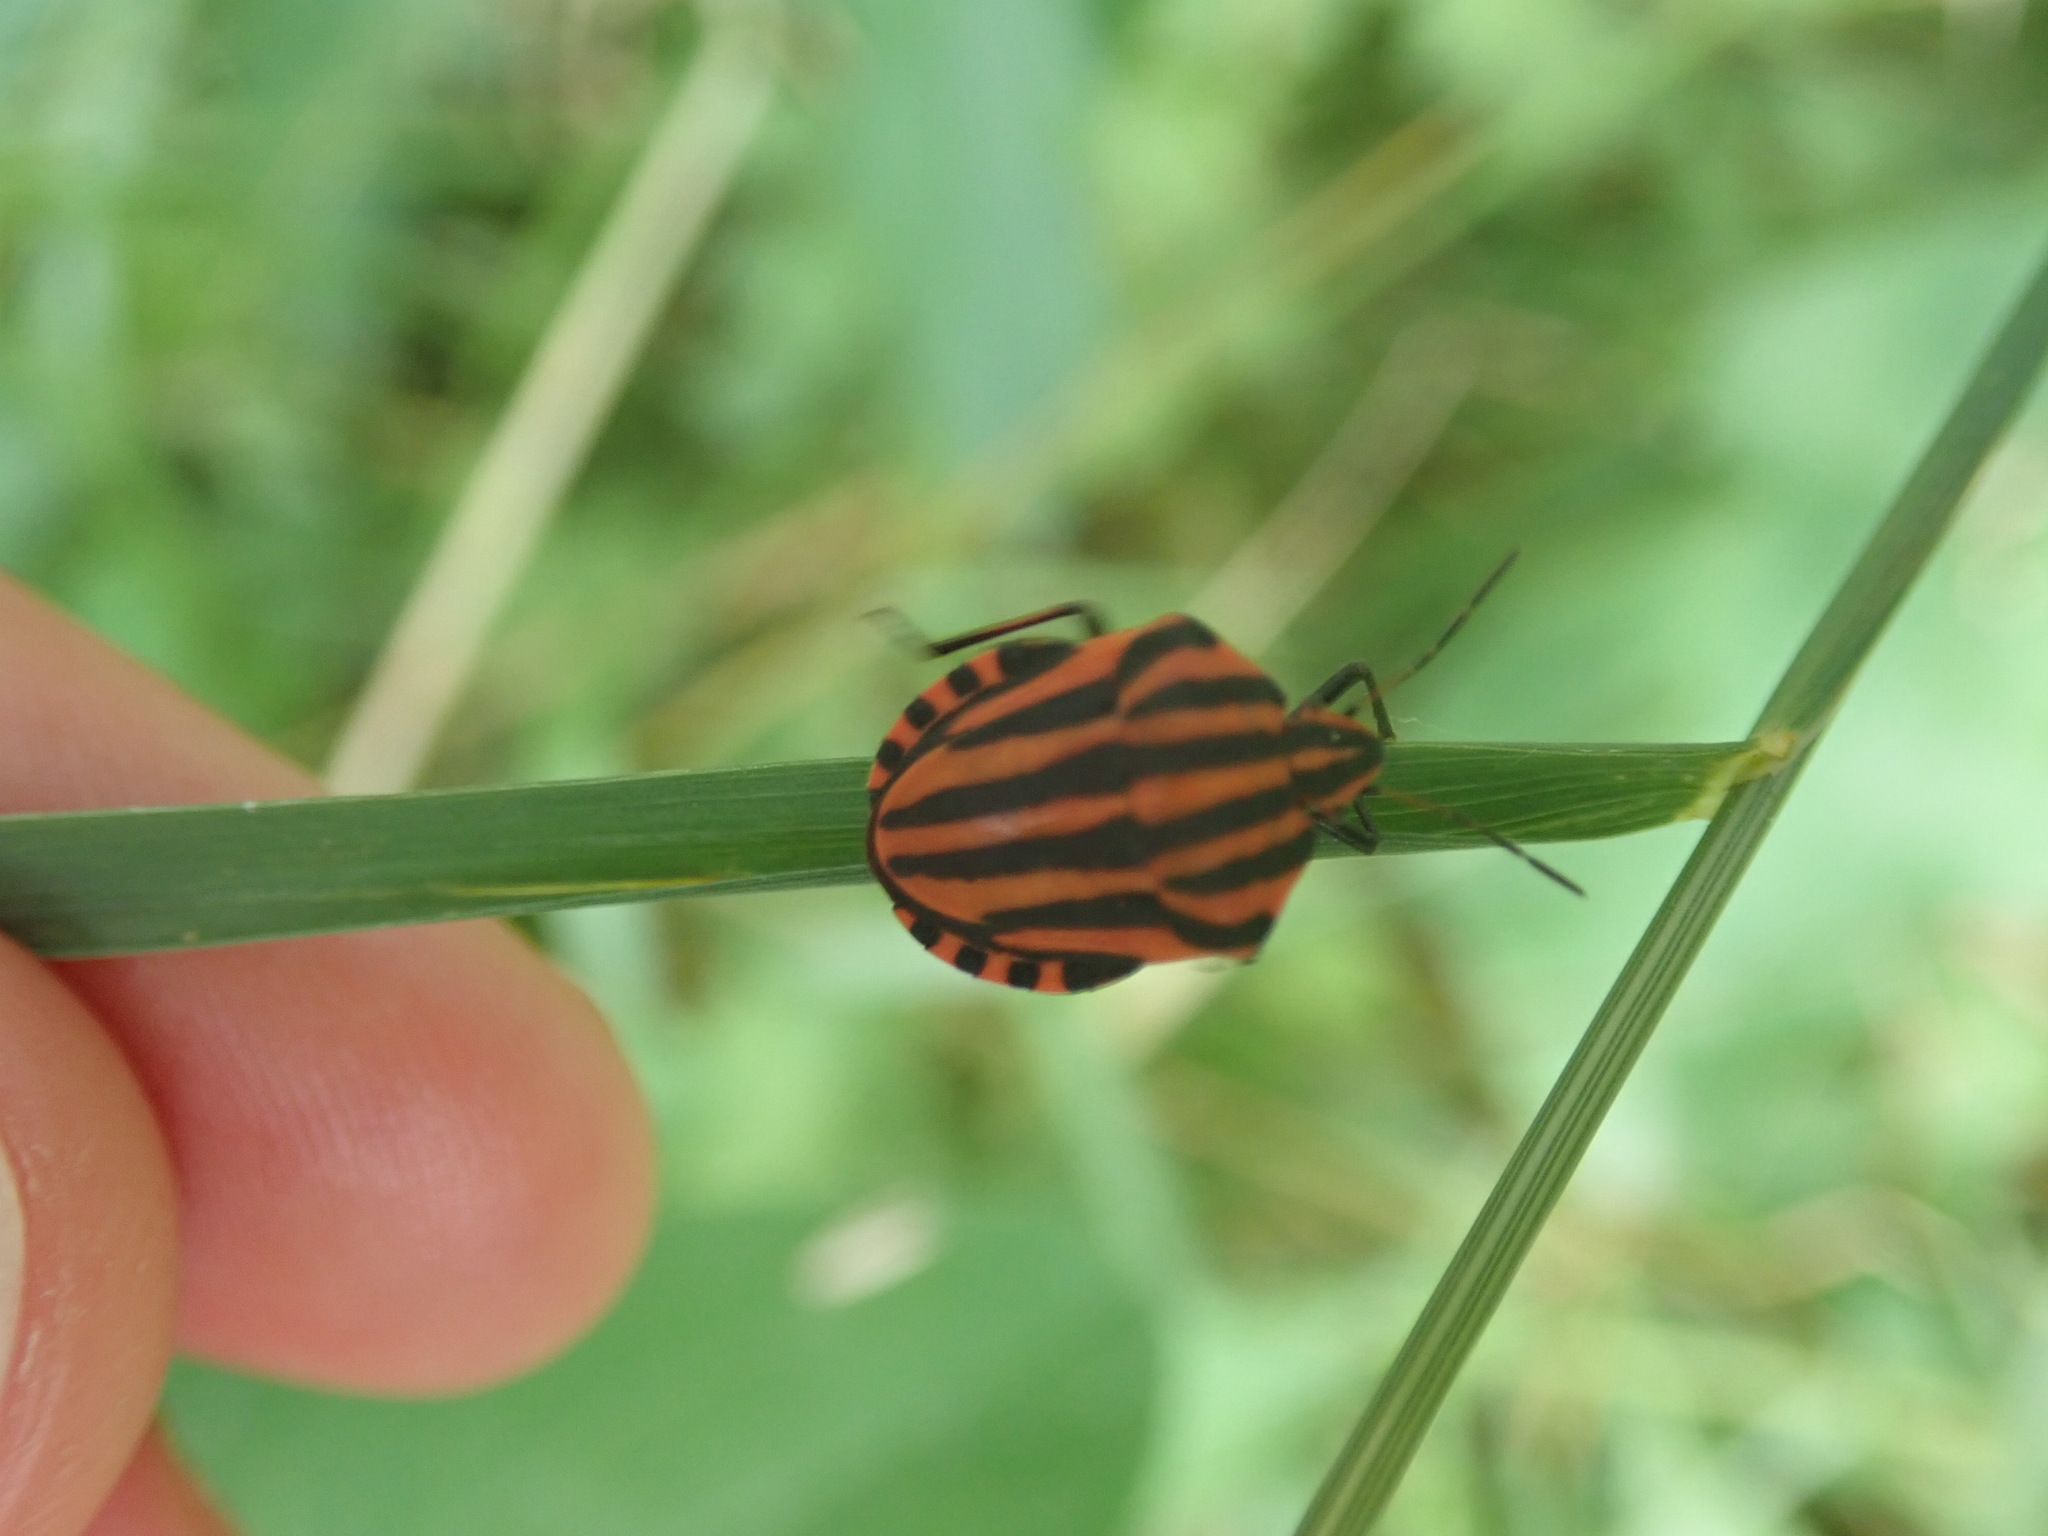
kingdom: Animalia
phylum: Arthropoda
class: Insecta
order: Hemiptera
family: Pentatomidae
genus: Graphosoma
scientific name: Graphosoma italicum
